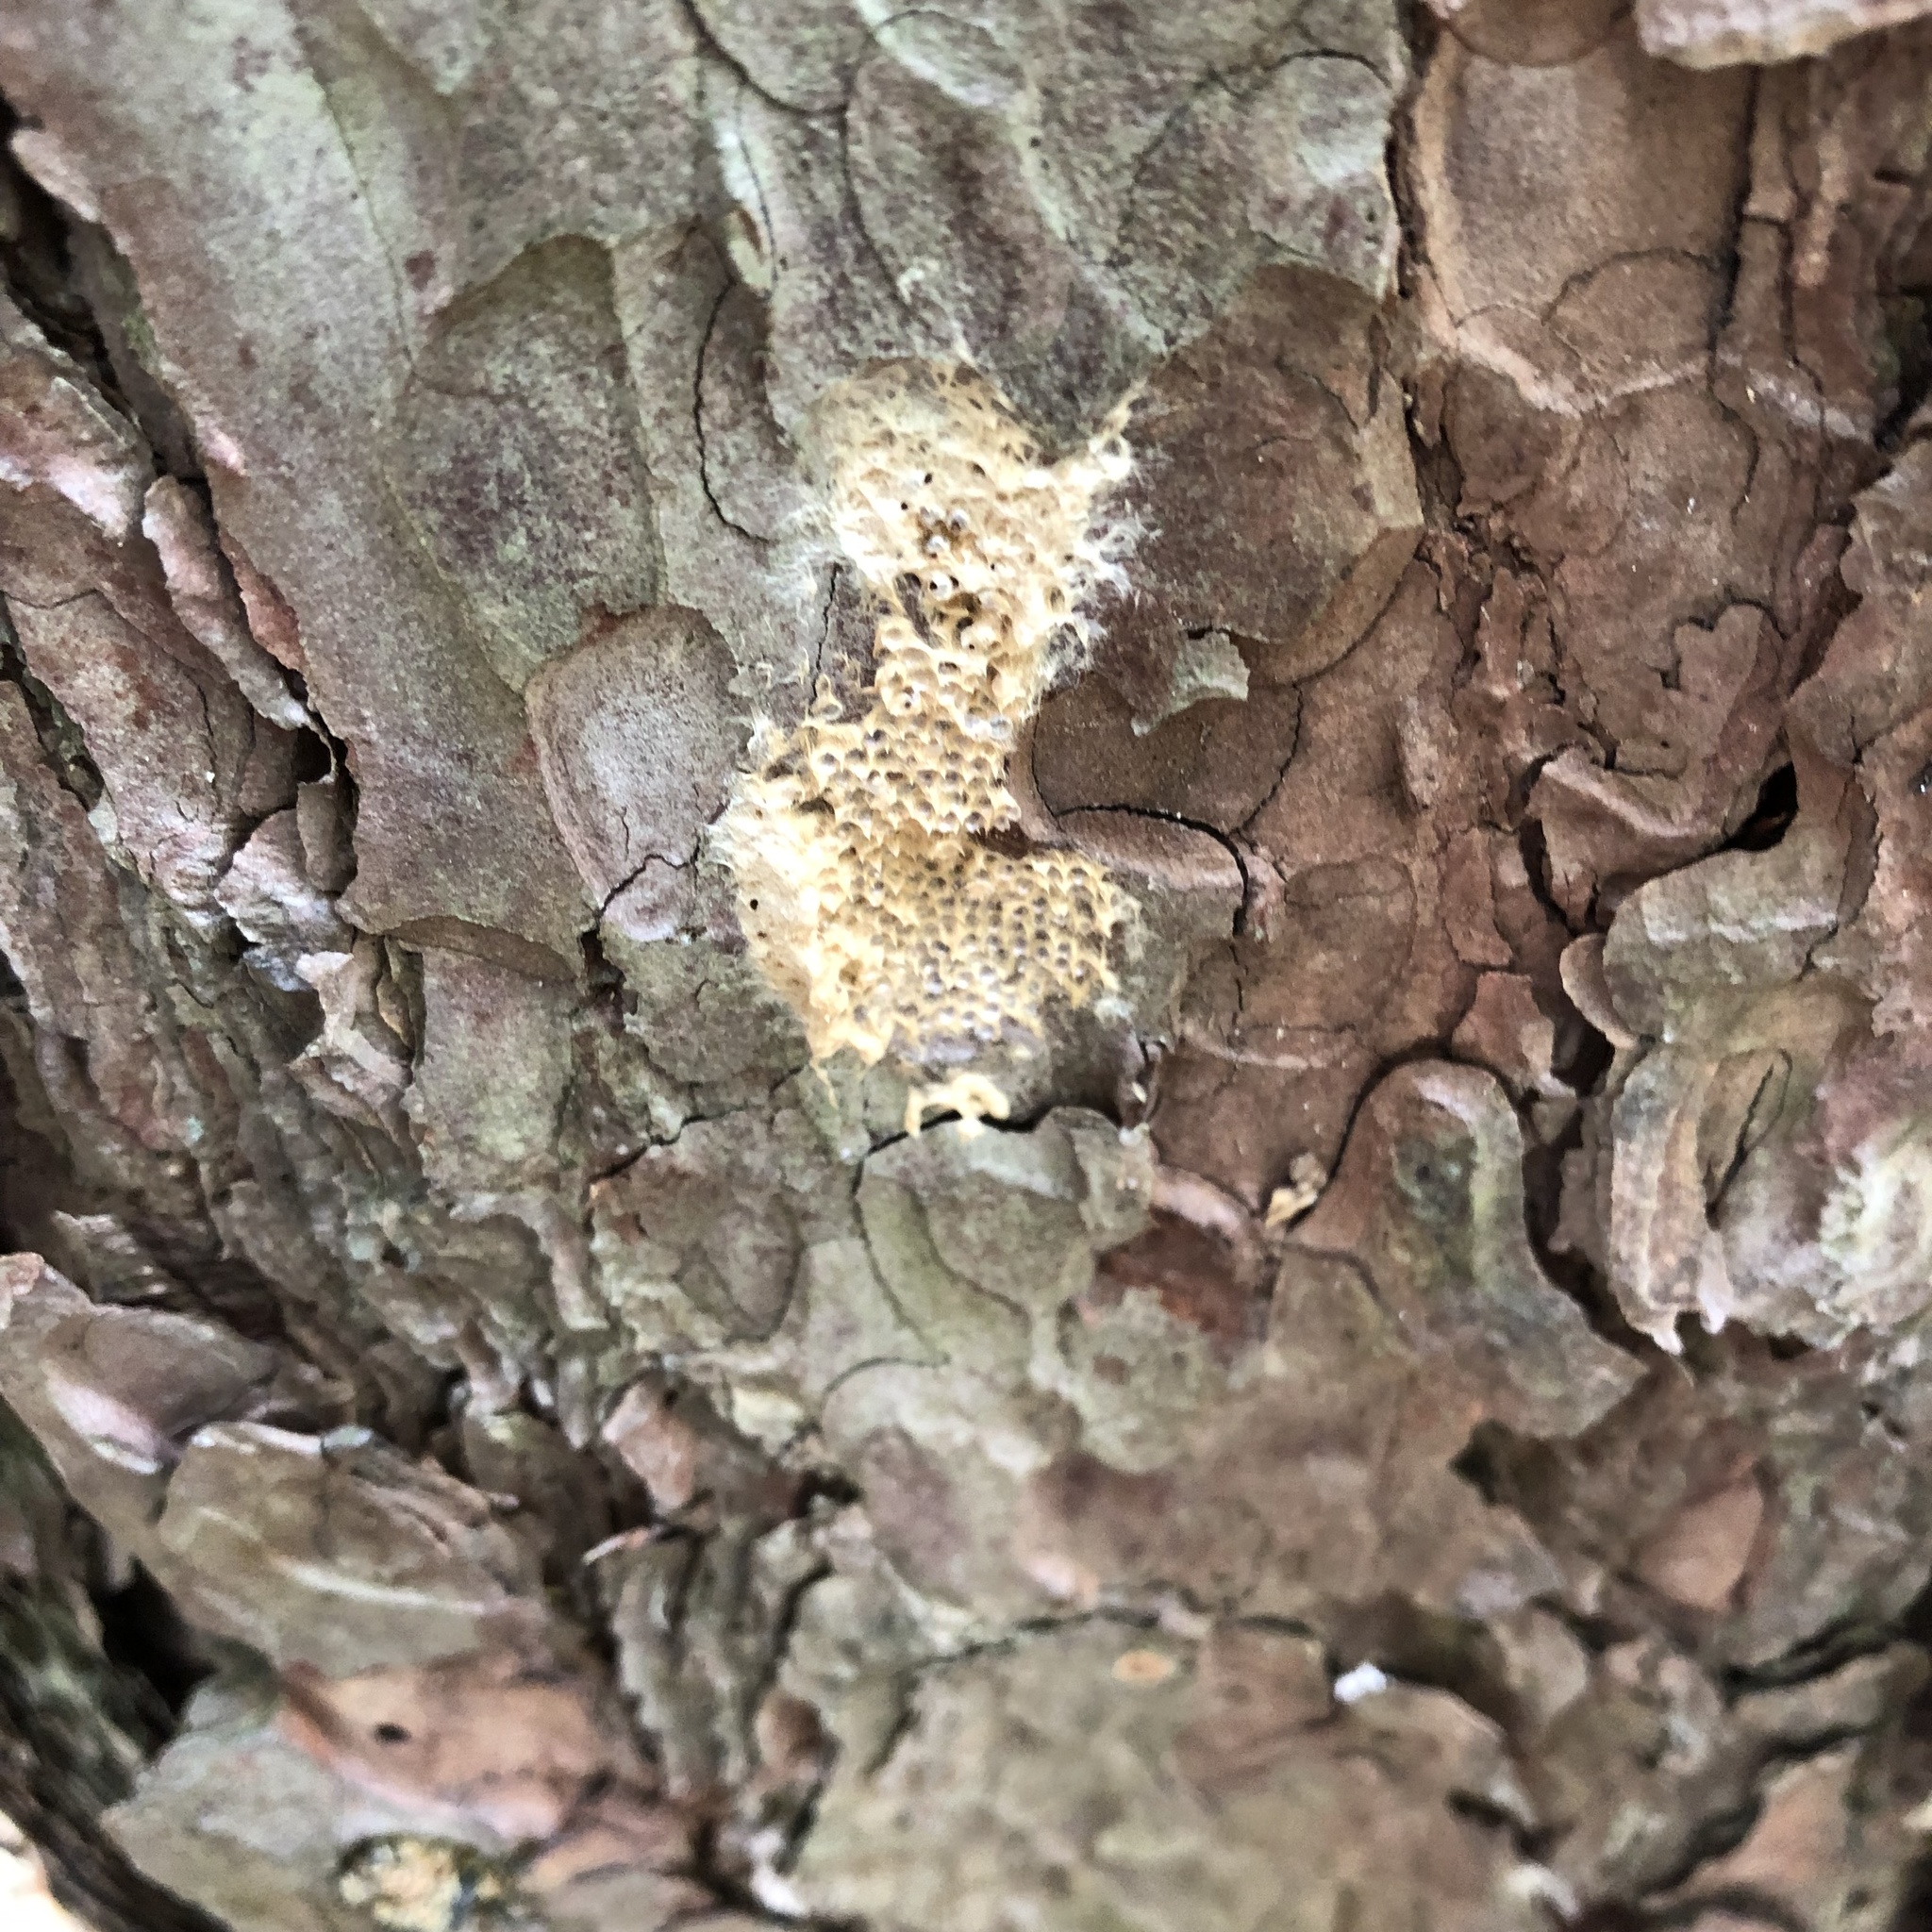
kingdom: Animalia
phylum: Arthropoda
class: Insecta
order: Lepidoptera
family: Erebidae
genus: Lymantria
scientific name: Lymantria dispar
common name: Gypsy moth
